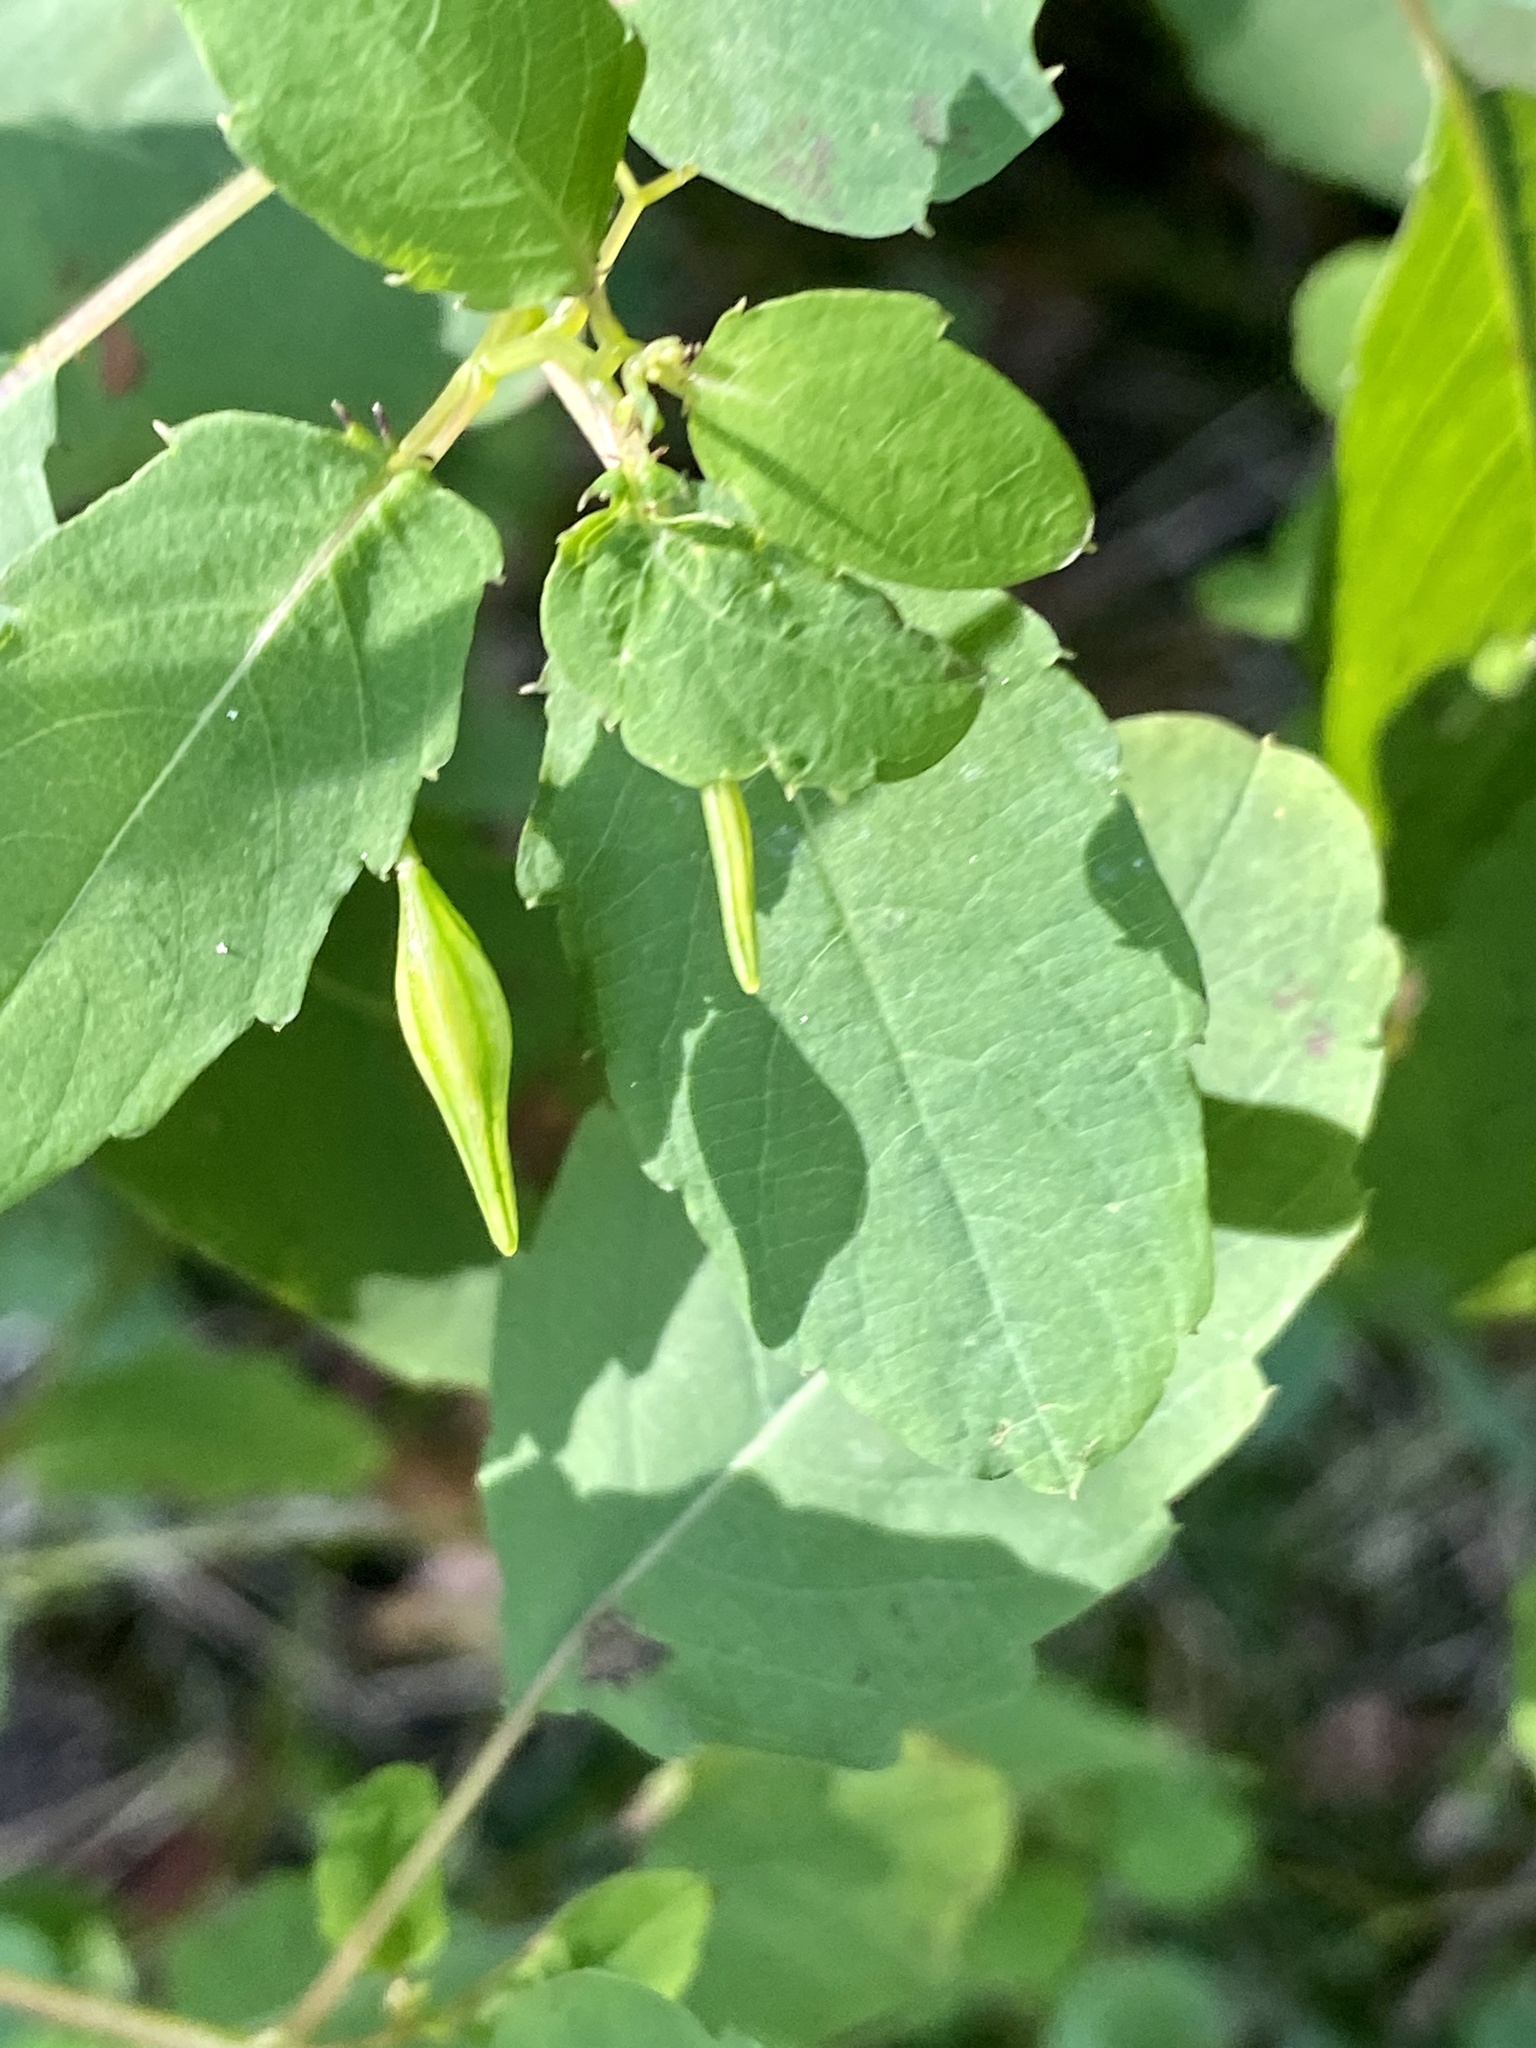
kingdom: Plantae
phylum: Tracheophyta
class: Magnoliopsida
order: Ericales
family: Balsaminaceae
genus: Impatiens
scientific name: Impatiens capensis
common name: Orange balsam
